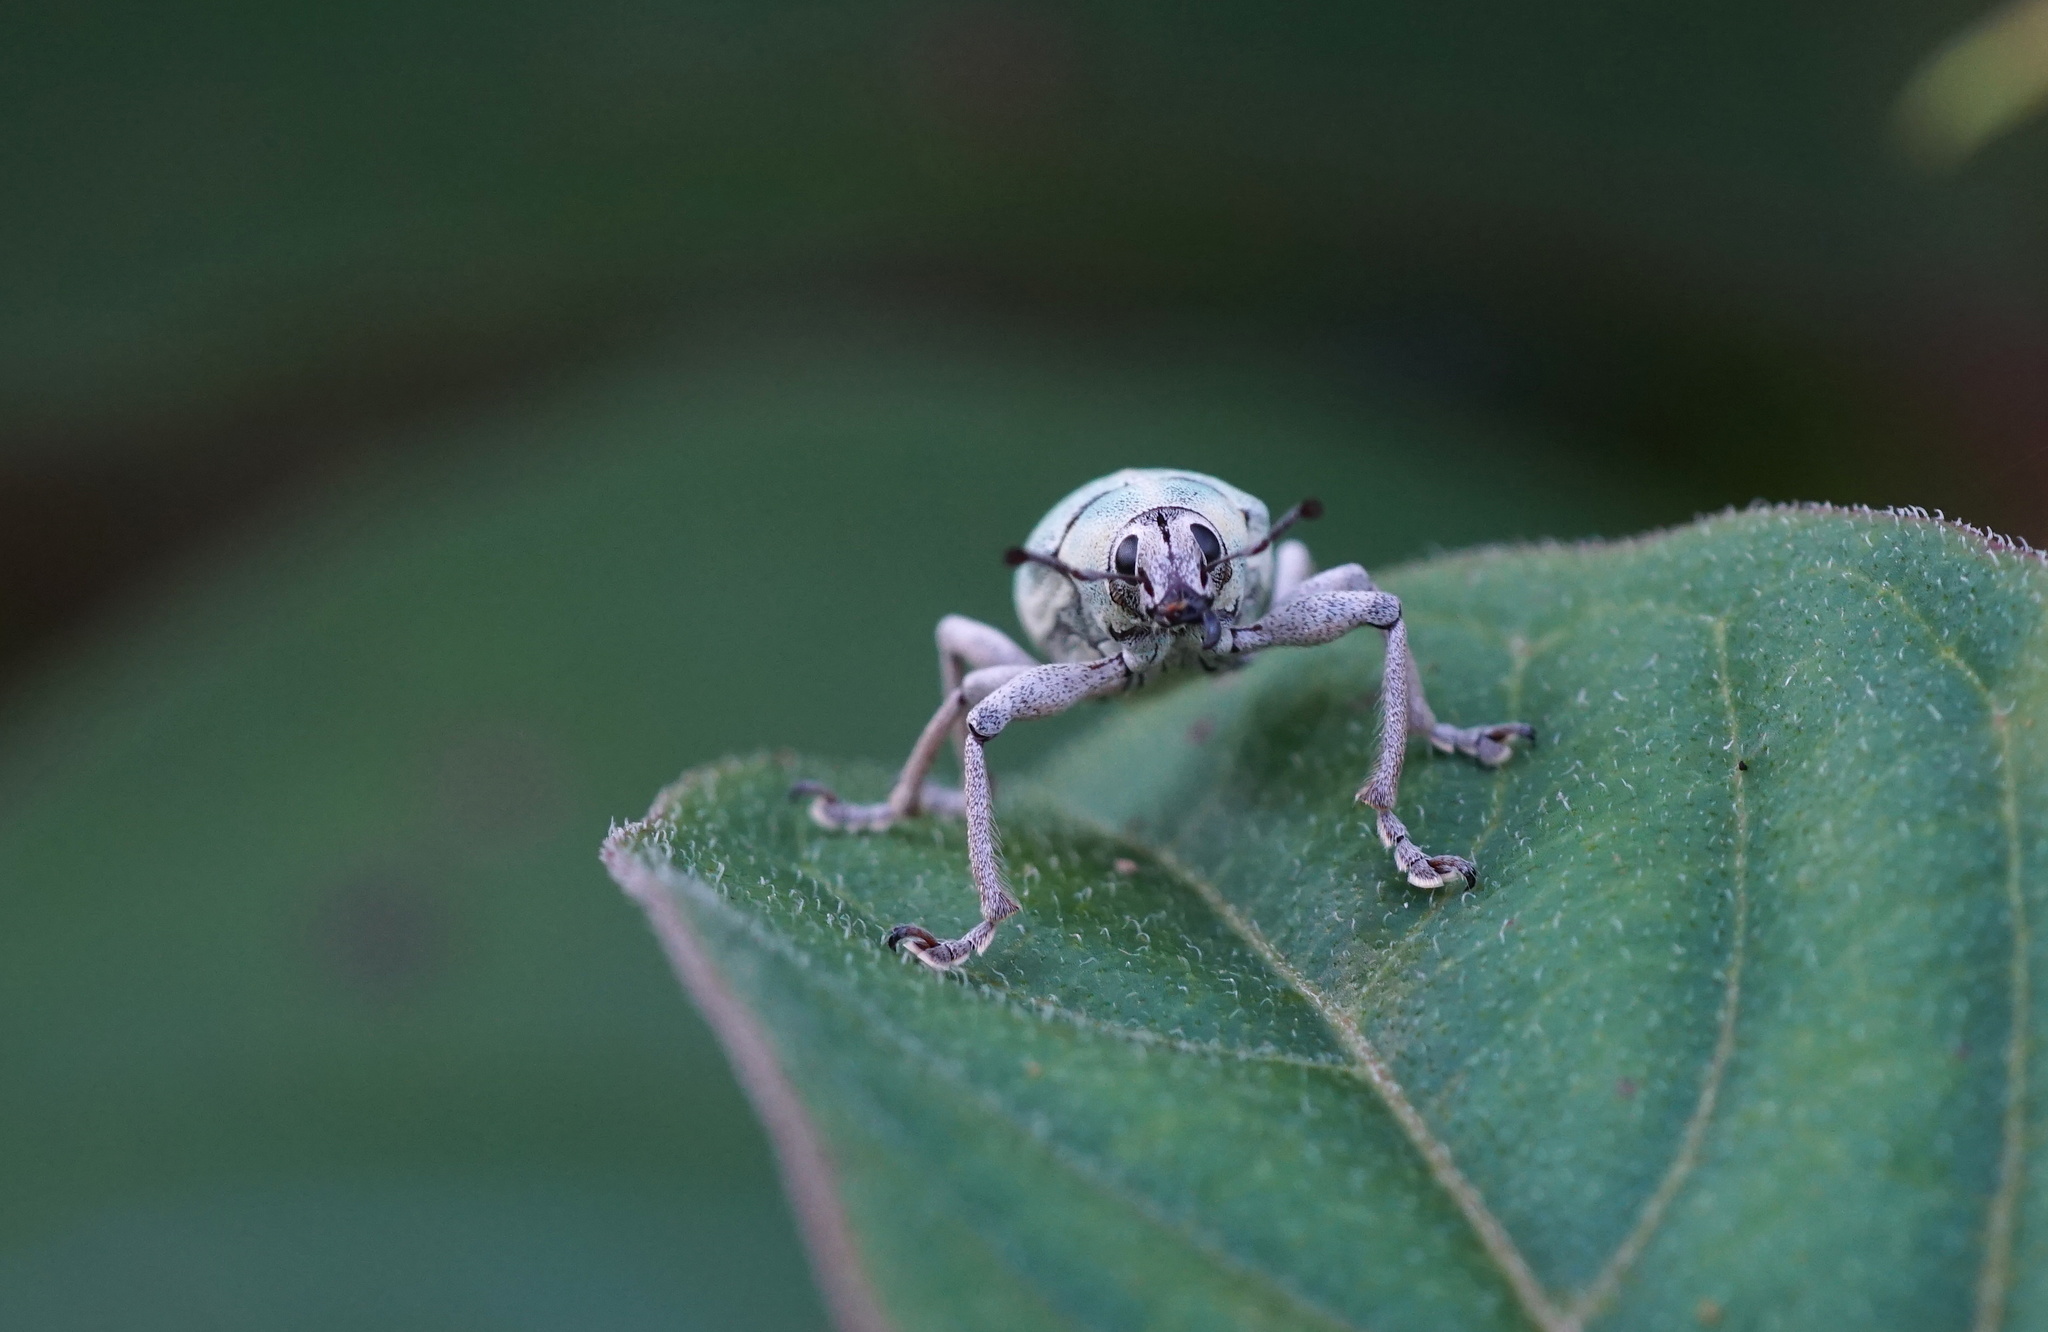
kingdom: Animalia
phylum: Arthropoda
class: Insecta
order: Coleoptera
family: Curculionidae
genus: Pachnaeus
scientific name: Pachnaeus litus
